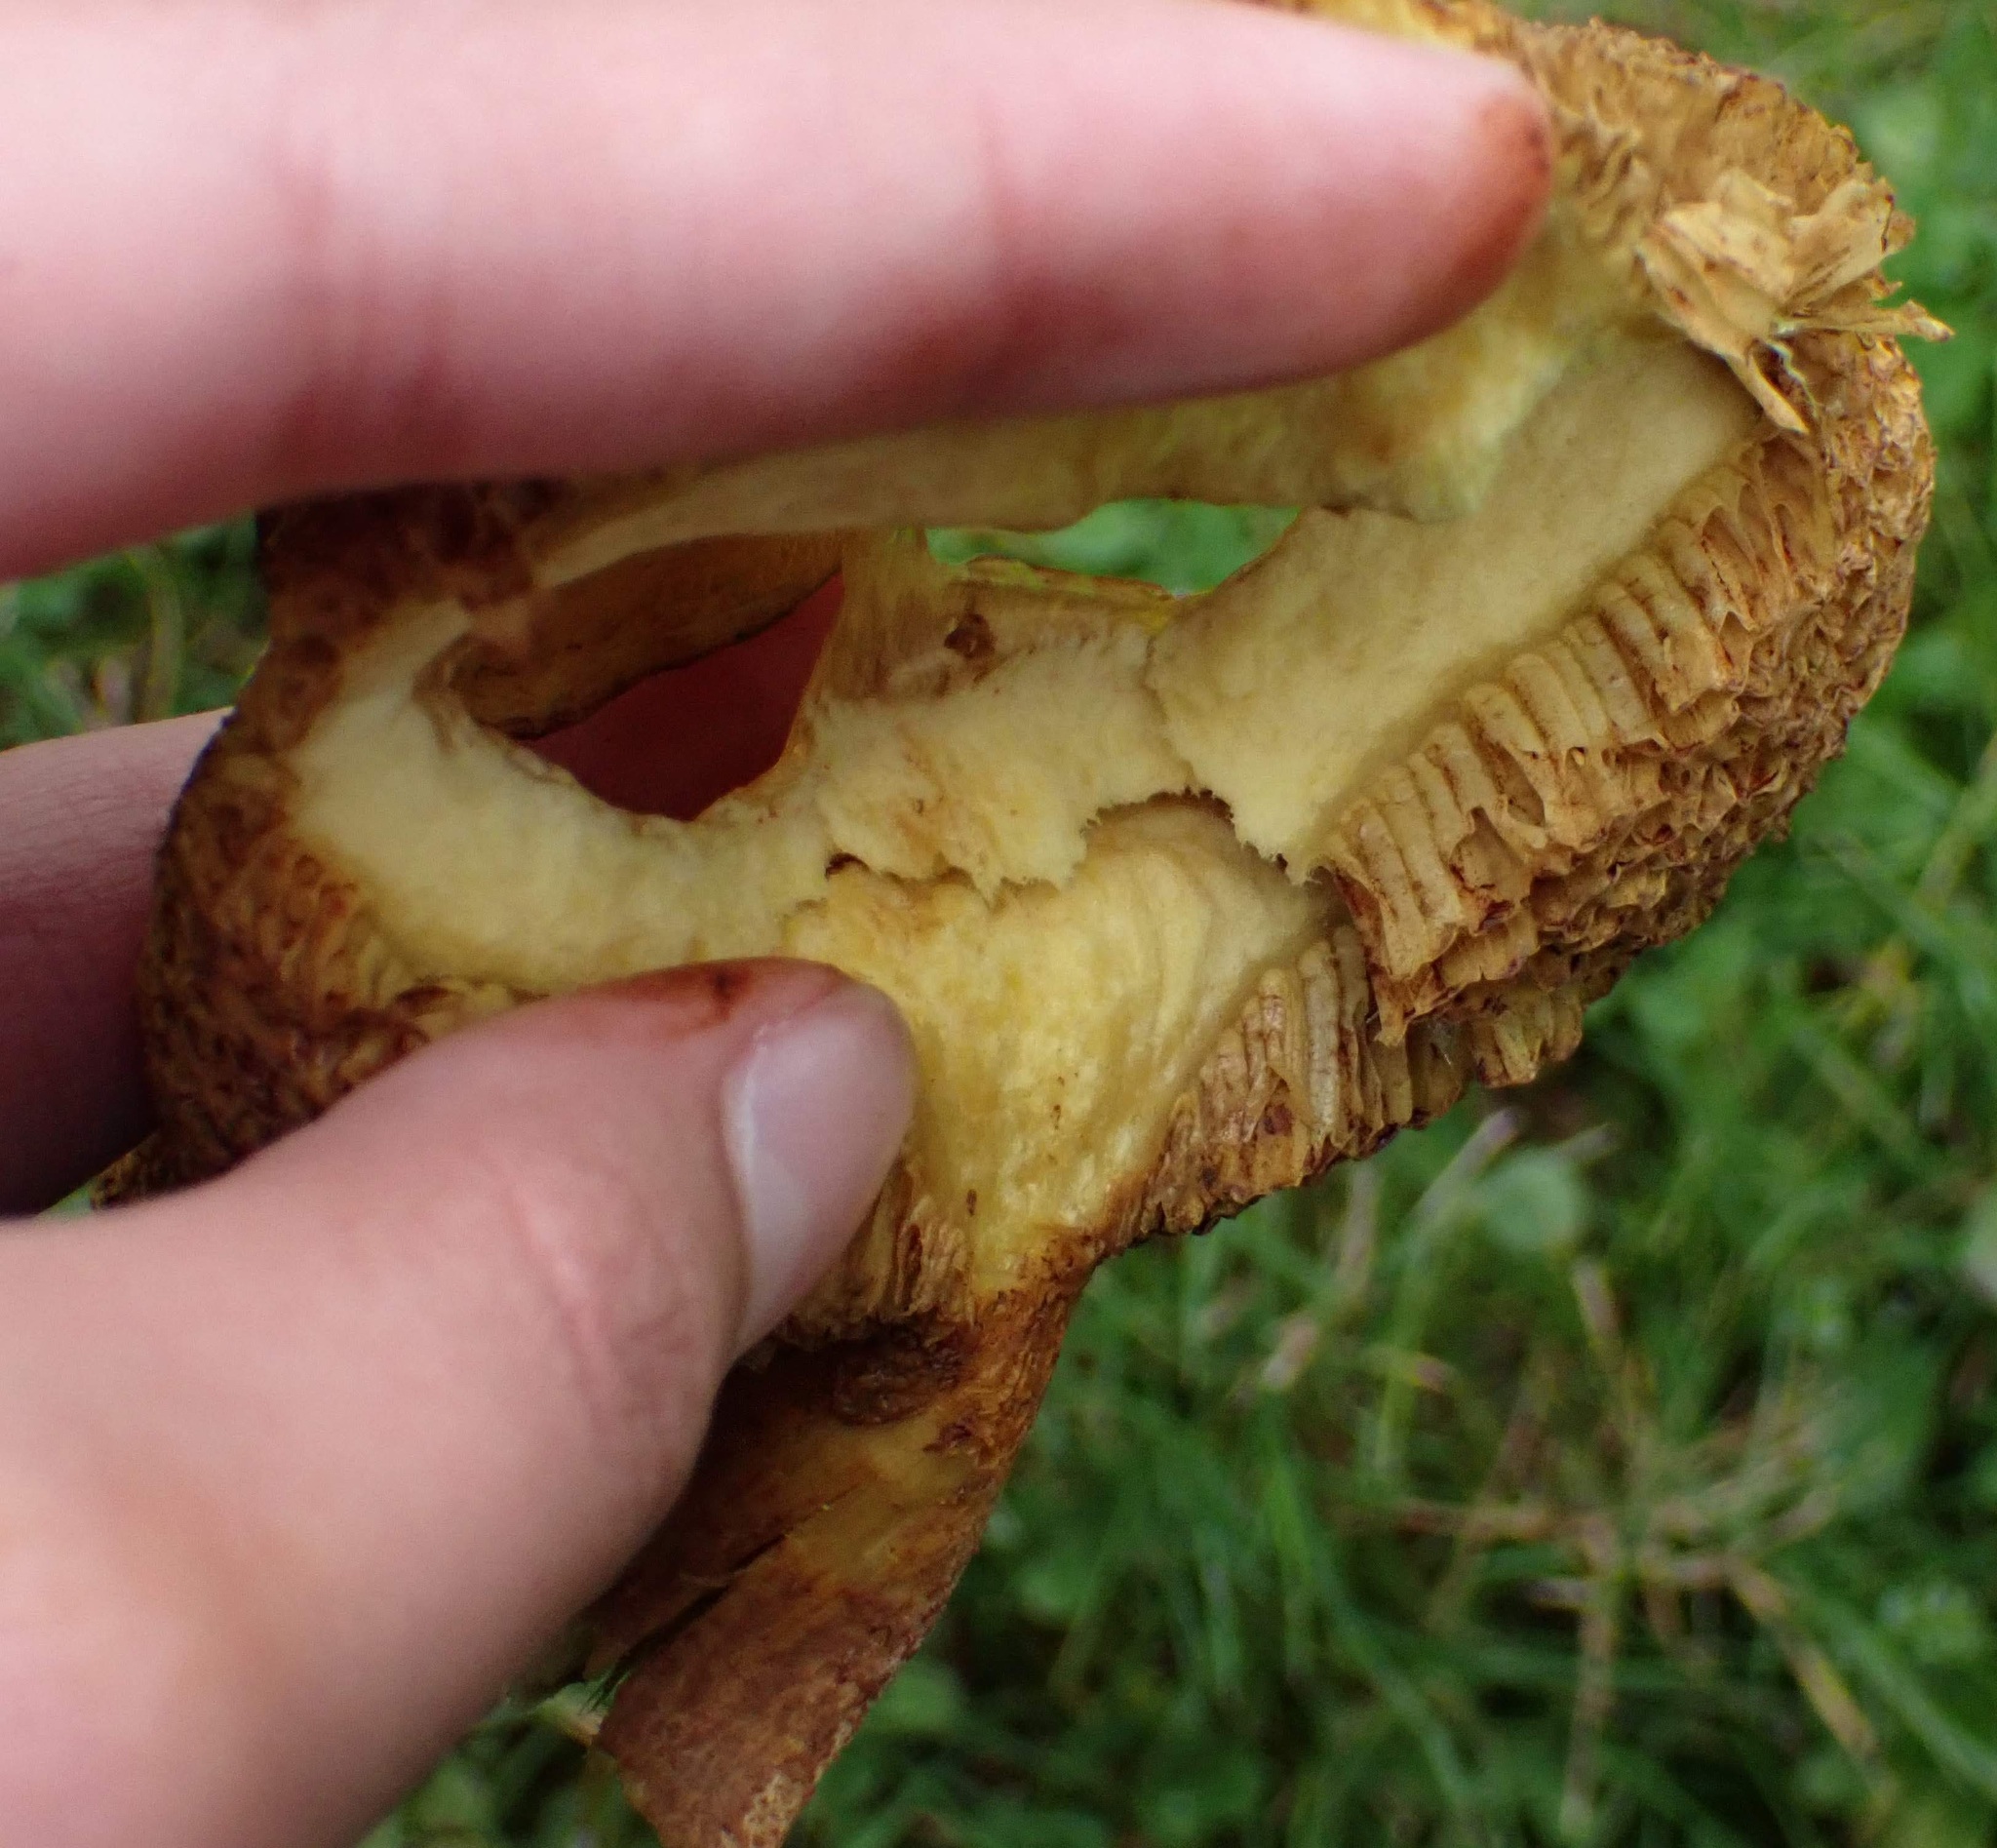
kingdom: Fungi
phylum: Basidiomycota
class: Agaricomycetes
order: Boletales
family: Suillaceae
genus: Suillus
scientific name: Suillus americanus
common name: Chicken fat mushroom
